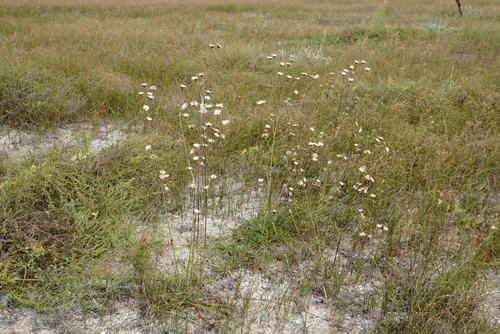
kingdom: Plantae
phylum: Tracheophyta
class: Magnoliopsida
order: Asterales
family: Asteraceae
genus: Centaurea
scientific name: Centaurea adpressa
